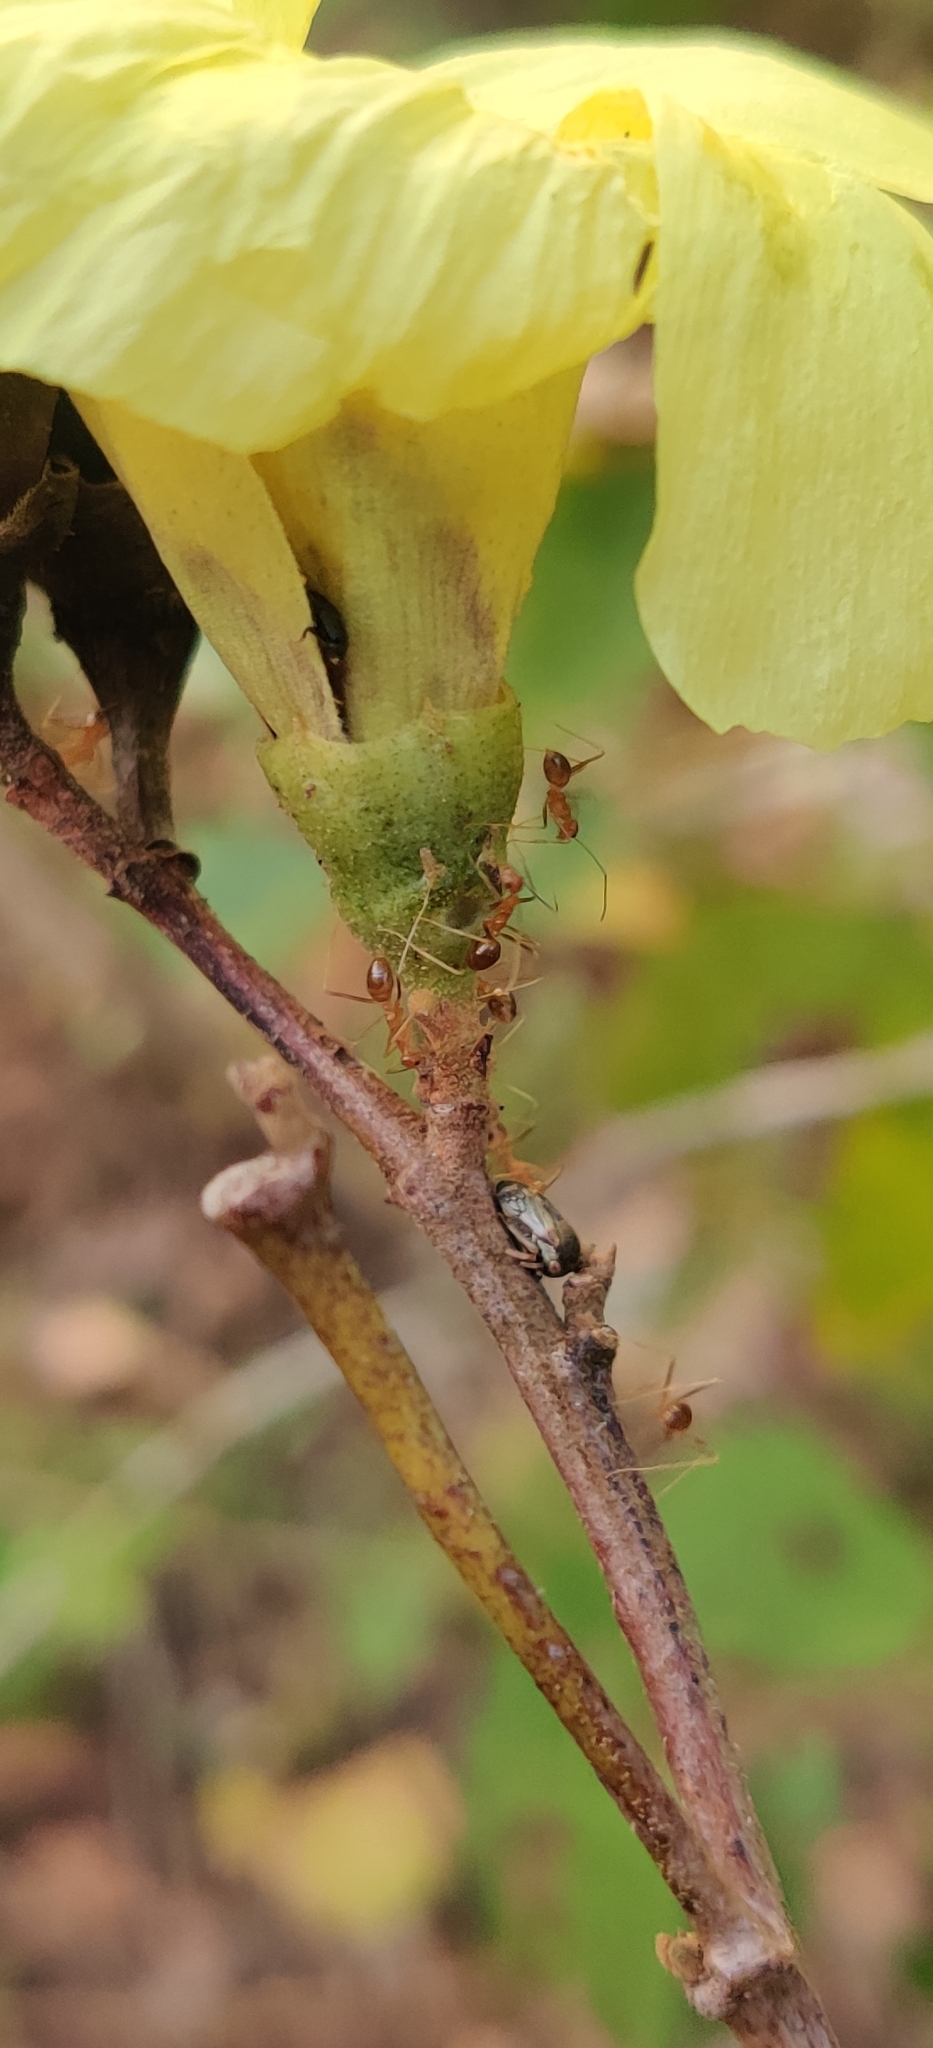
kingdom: Animalia
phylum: Arthropoda
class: Insecta
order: Hymenoptera
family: Formicidae
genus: Anoplolepis
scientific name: Anoplolepis gracilipes
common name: Ant
